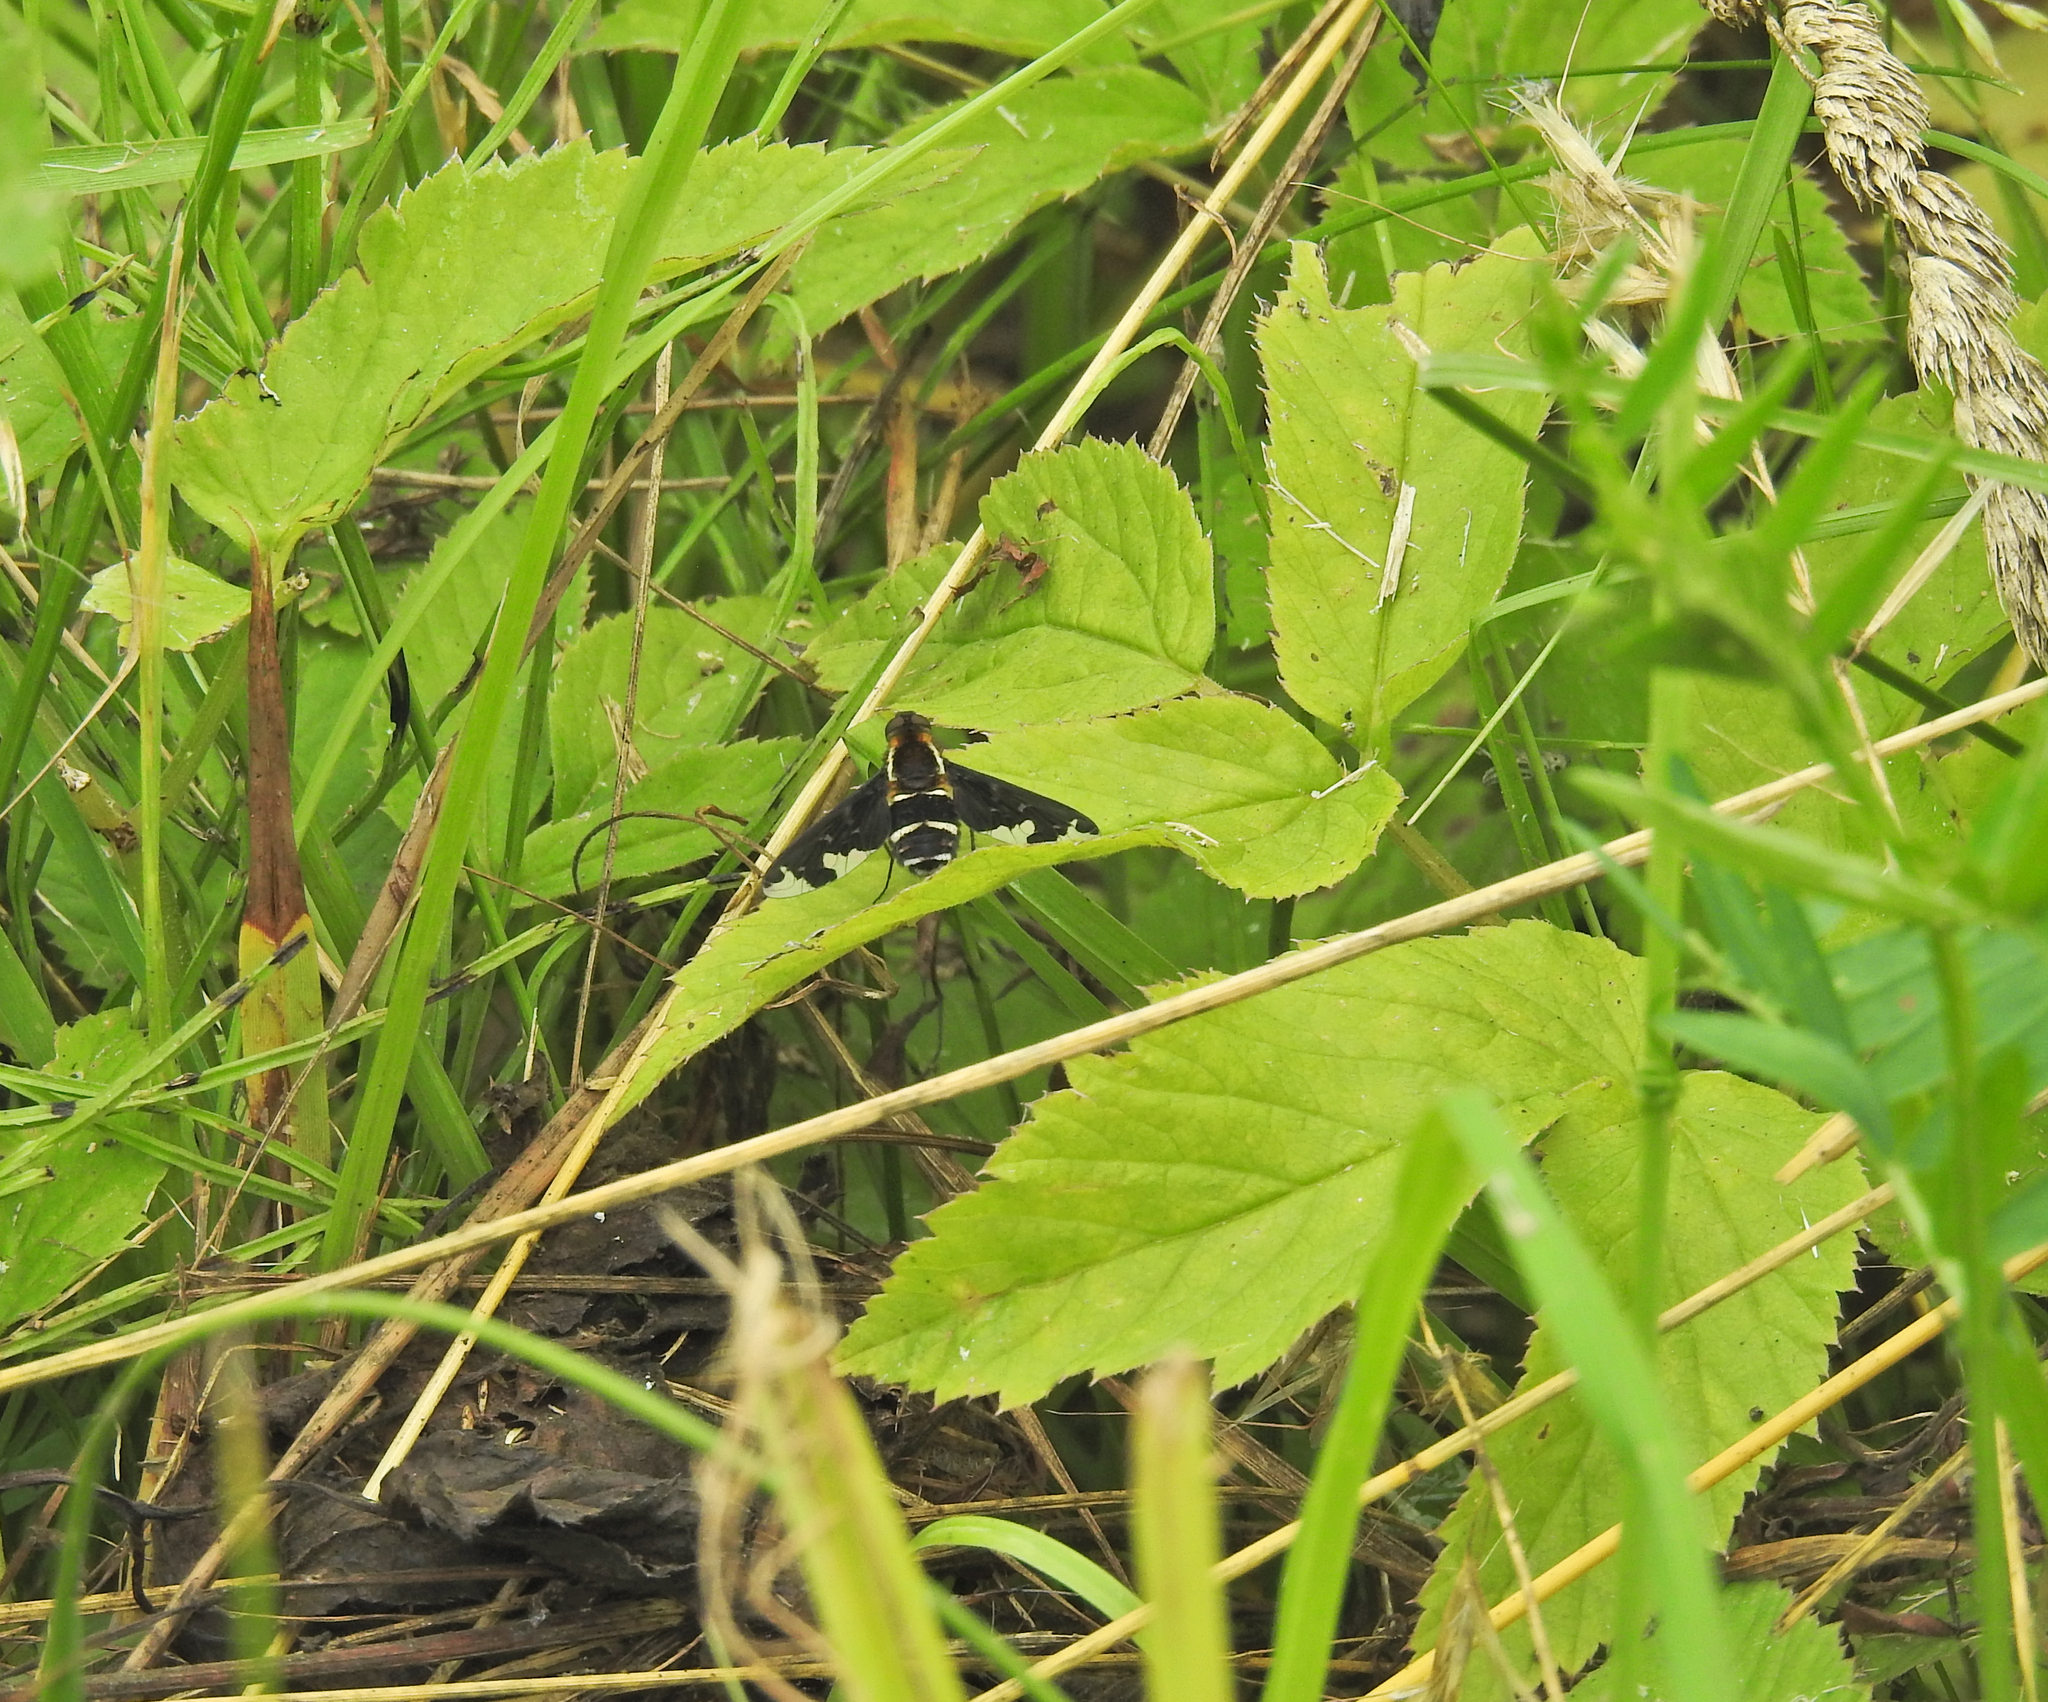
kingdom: Animalia
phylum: Arthropoda
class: Insecta
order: Diptera
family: Bombyliidae
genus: Hemipenthes
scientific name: Hemipenthes maura
